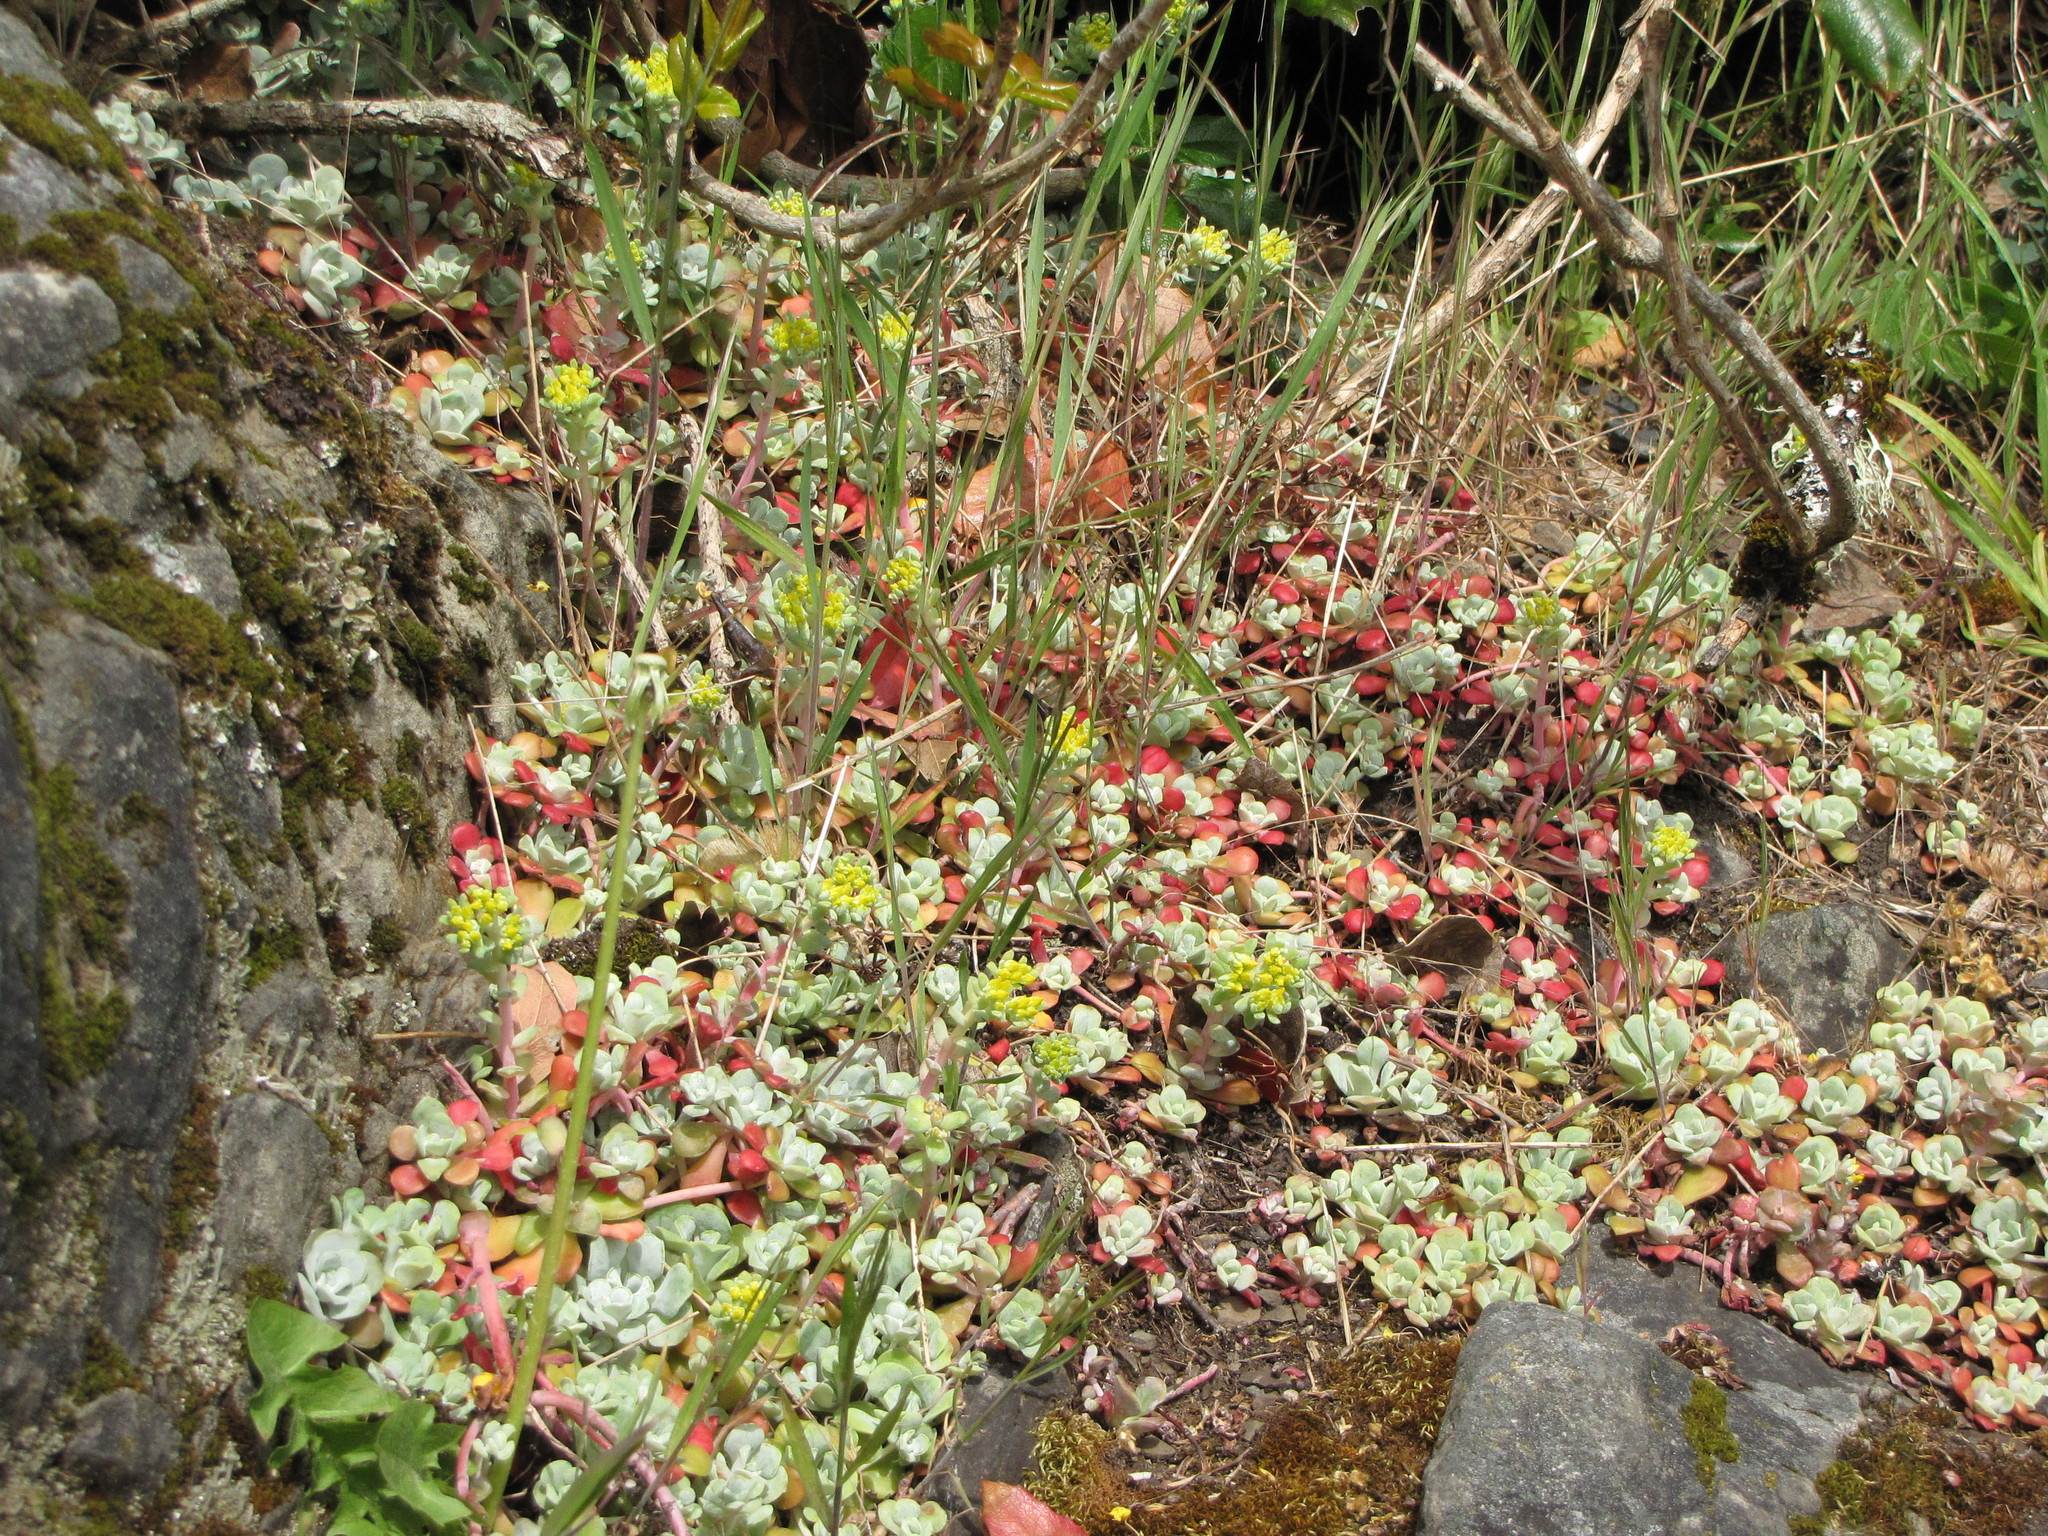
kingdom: Plantae
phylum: Tracheophyta
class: Magnoliopsida
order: Saxifragales
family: Crassulaceae
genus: Sedum
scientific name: Sedum spathulifolium
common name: Colorado stonecrop
